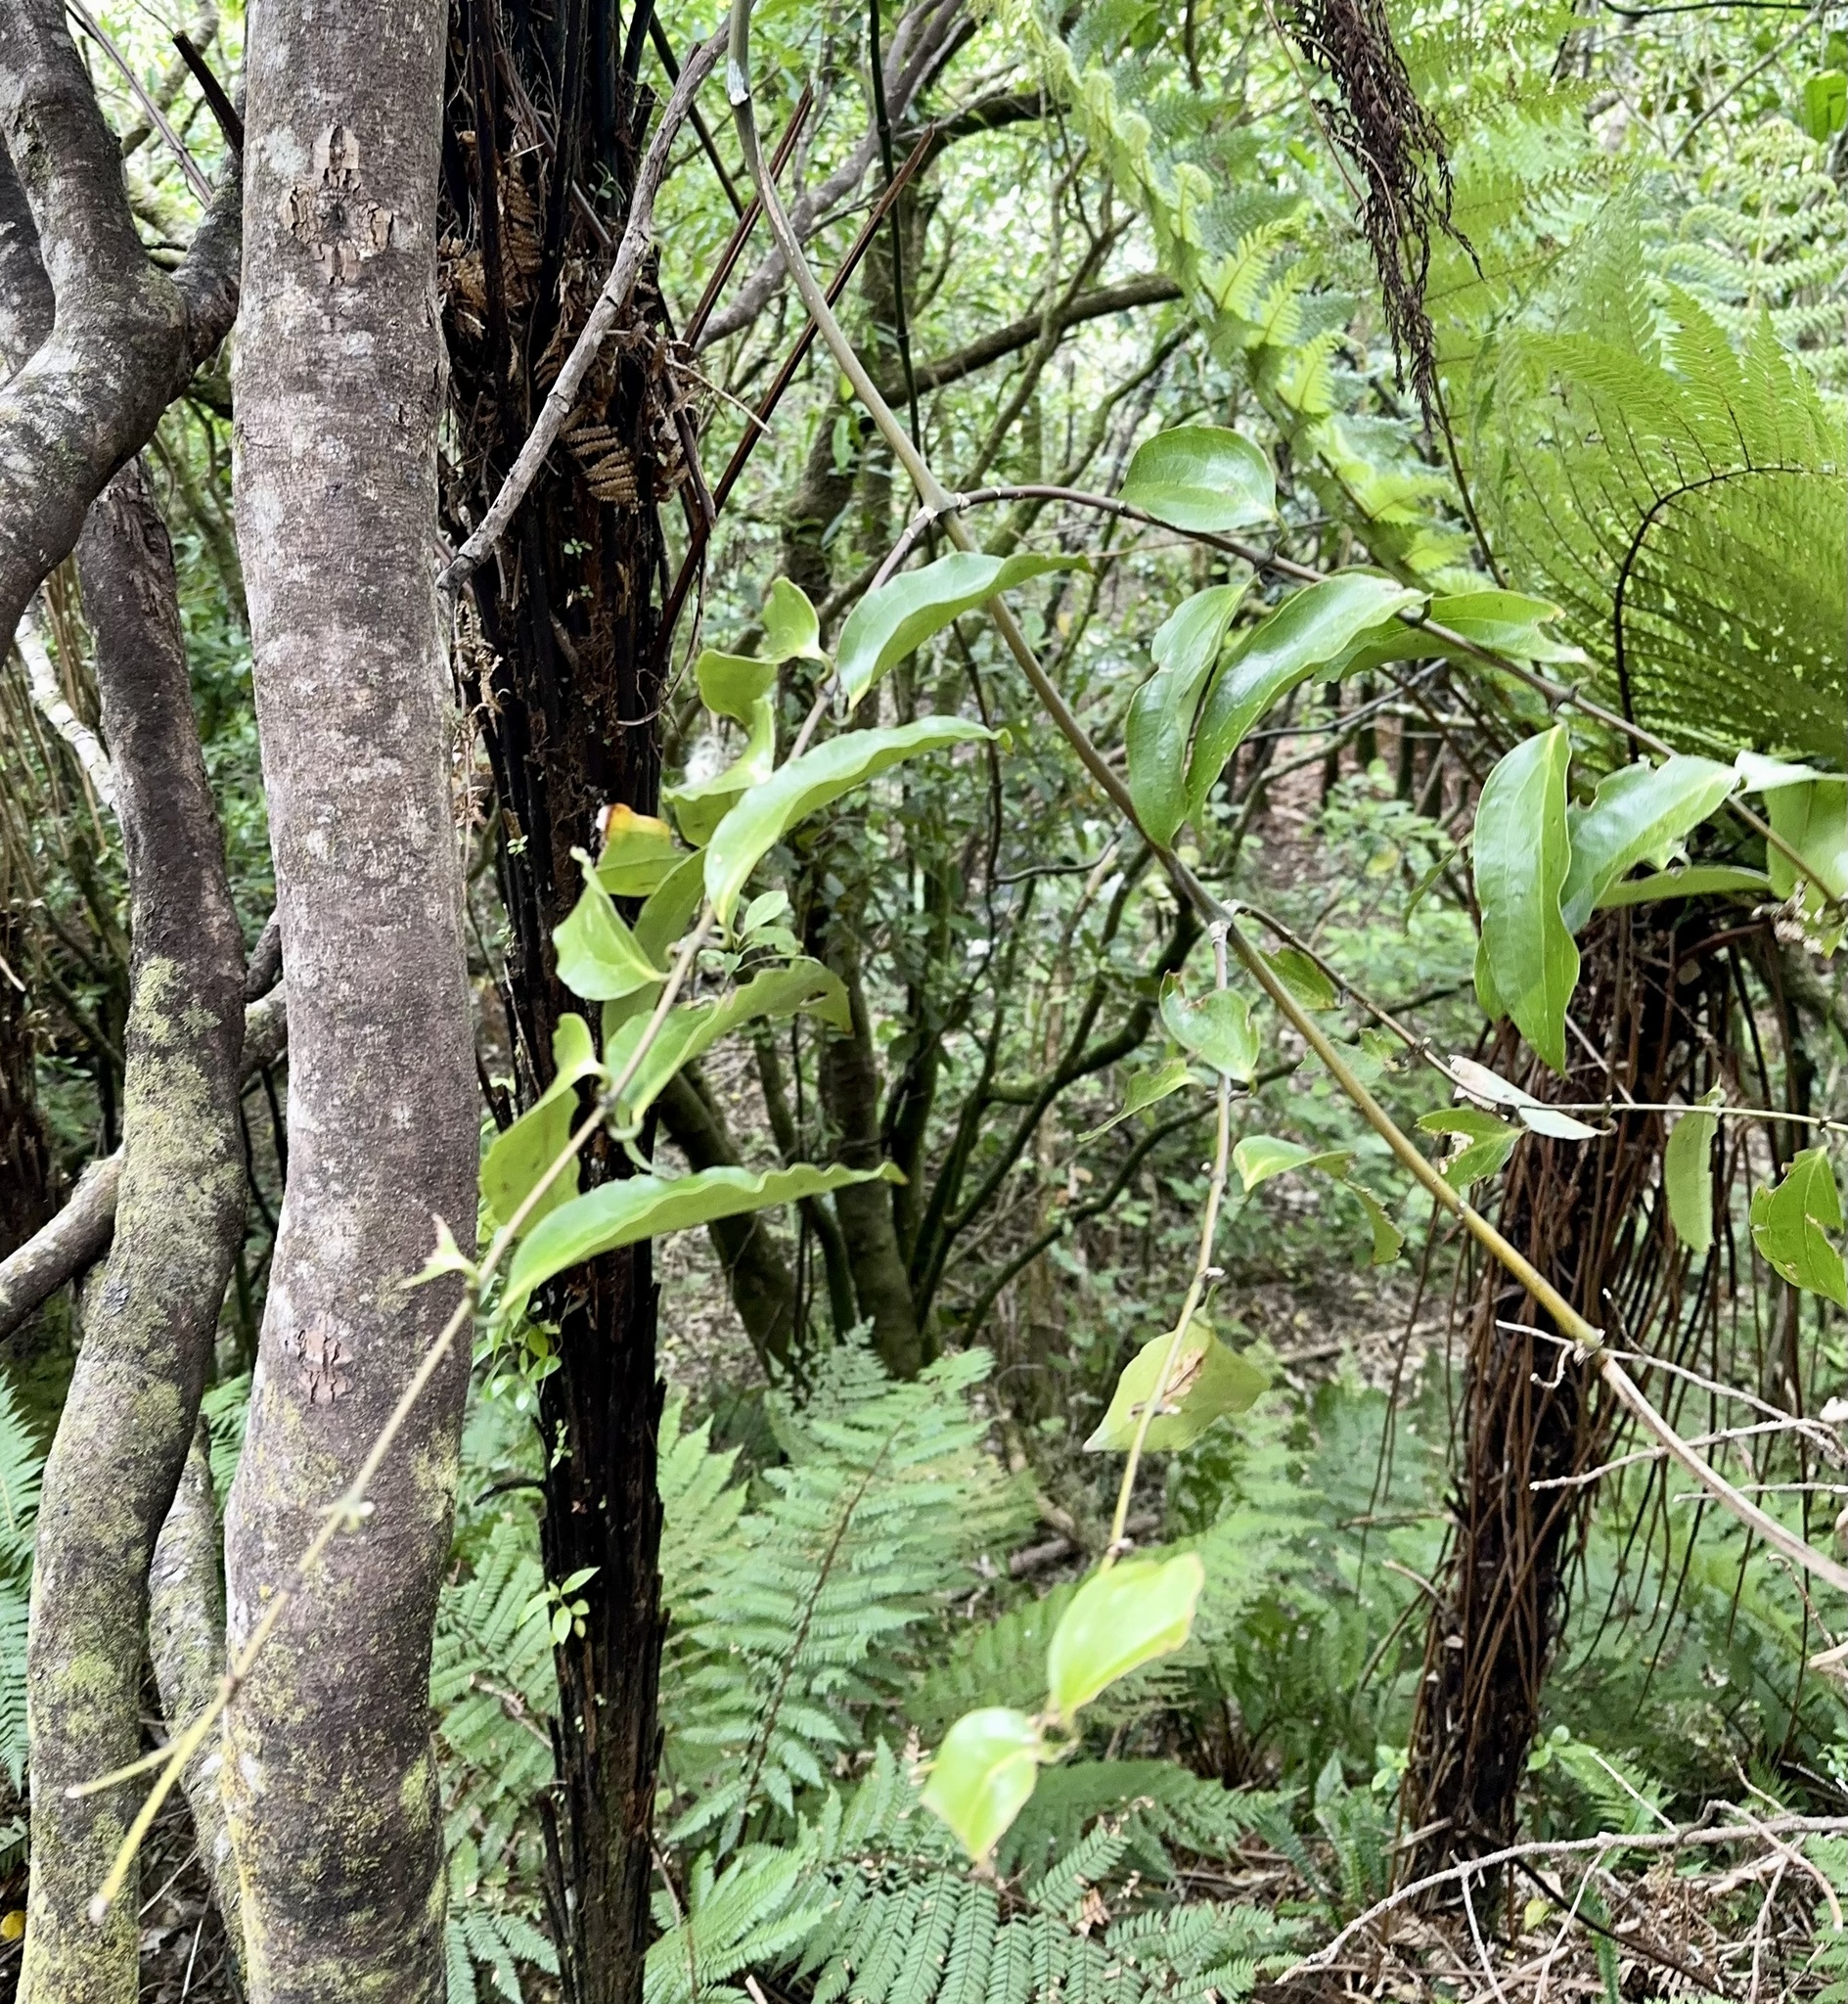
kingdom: Plantae
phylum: Tracheophyta
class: Liliopsida
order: Liliales
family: Ripogonaceae
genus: Ripogonum
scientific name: Ripogonum scandens
